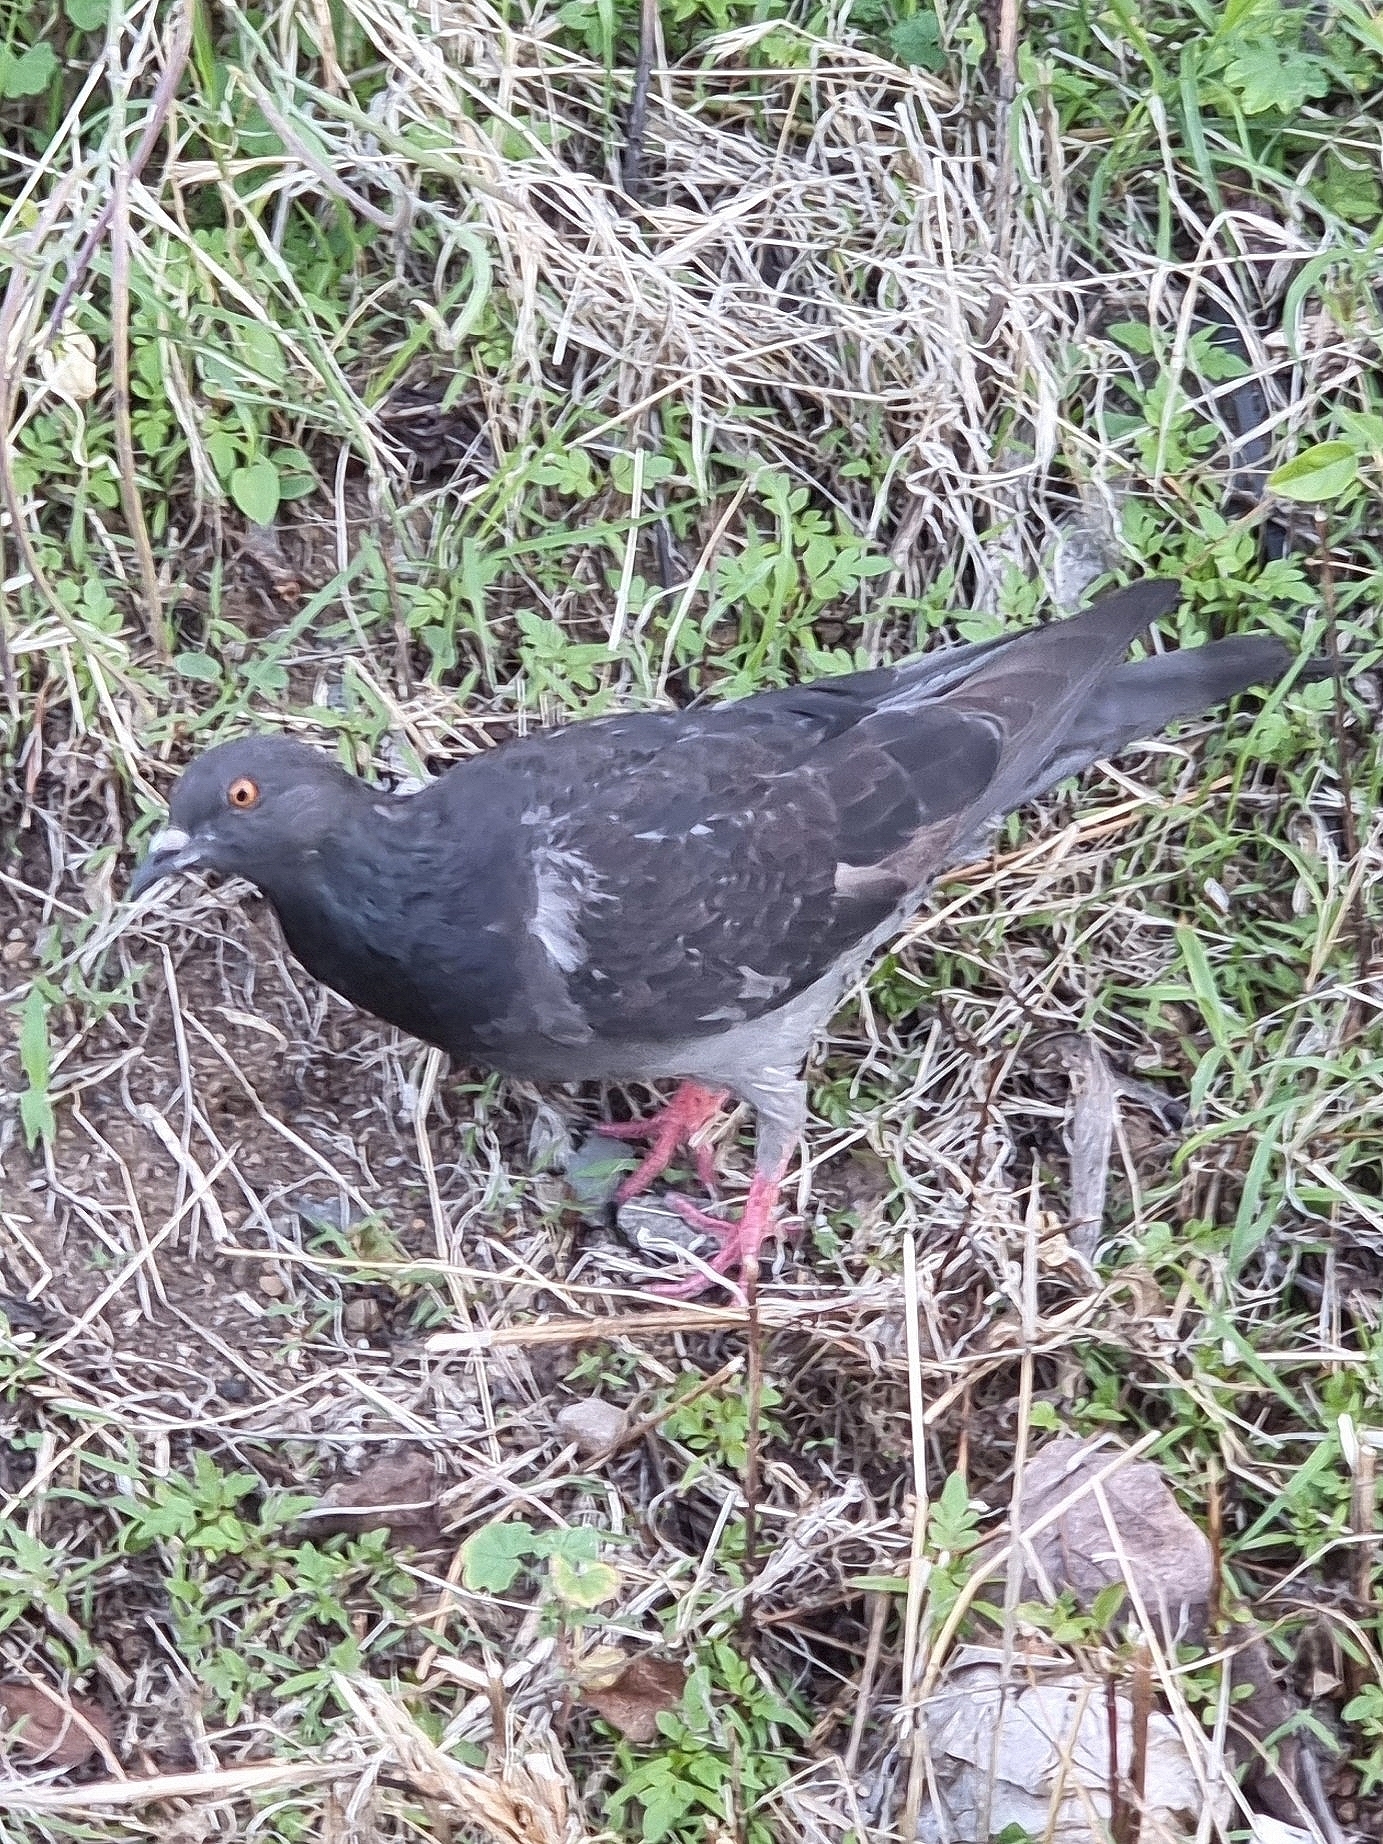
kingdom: Animalia
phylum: Chordata
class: Aves
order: Columbiformes
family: Columbidae
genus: Columba
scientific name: Columba livia
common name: Rock pigeon
